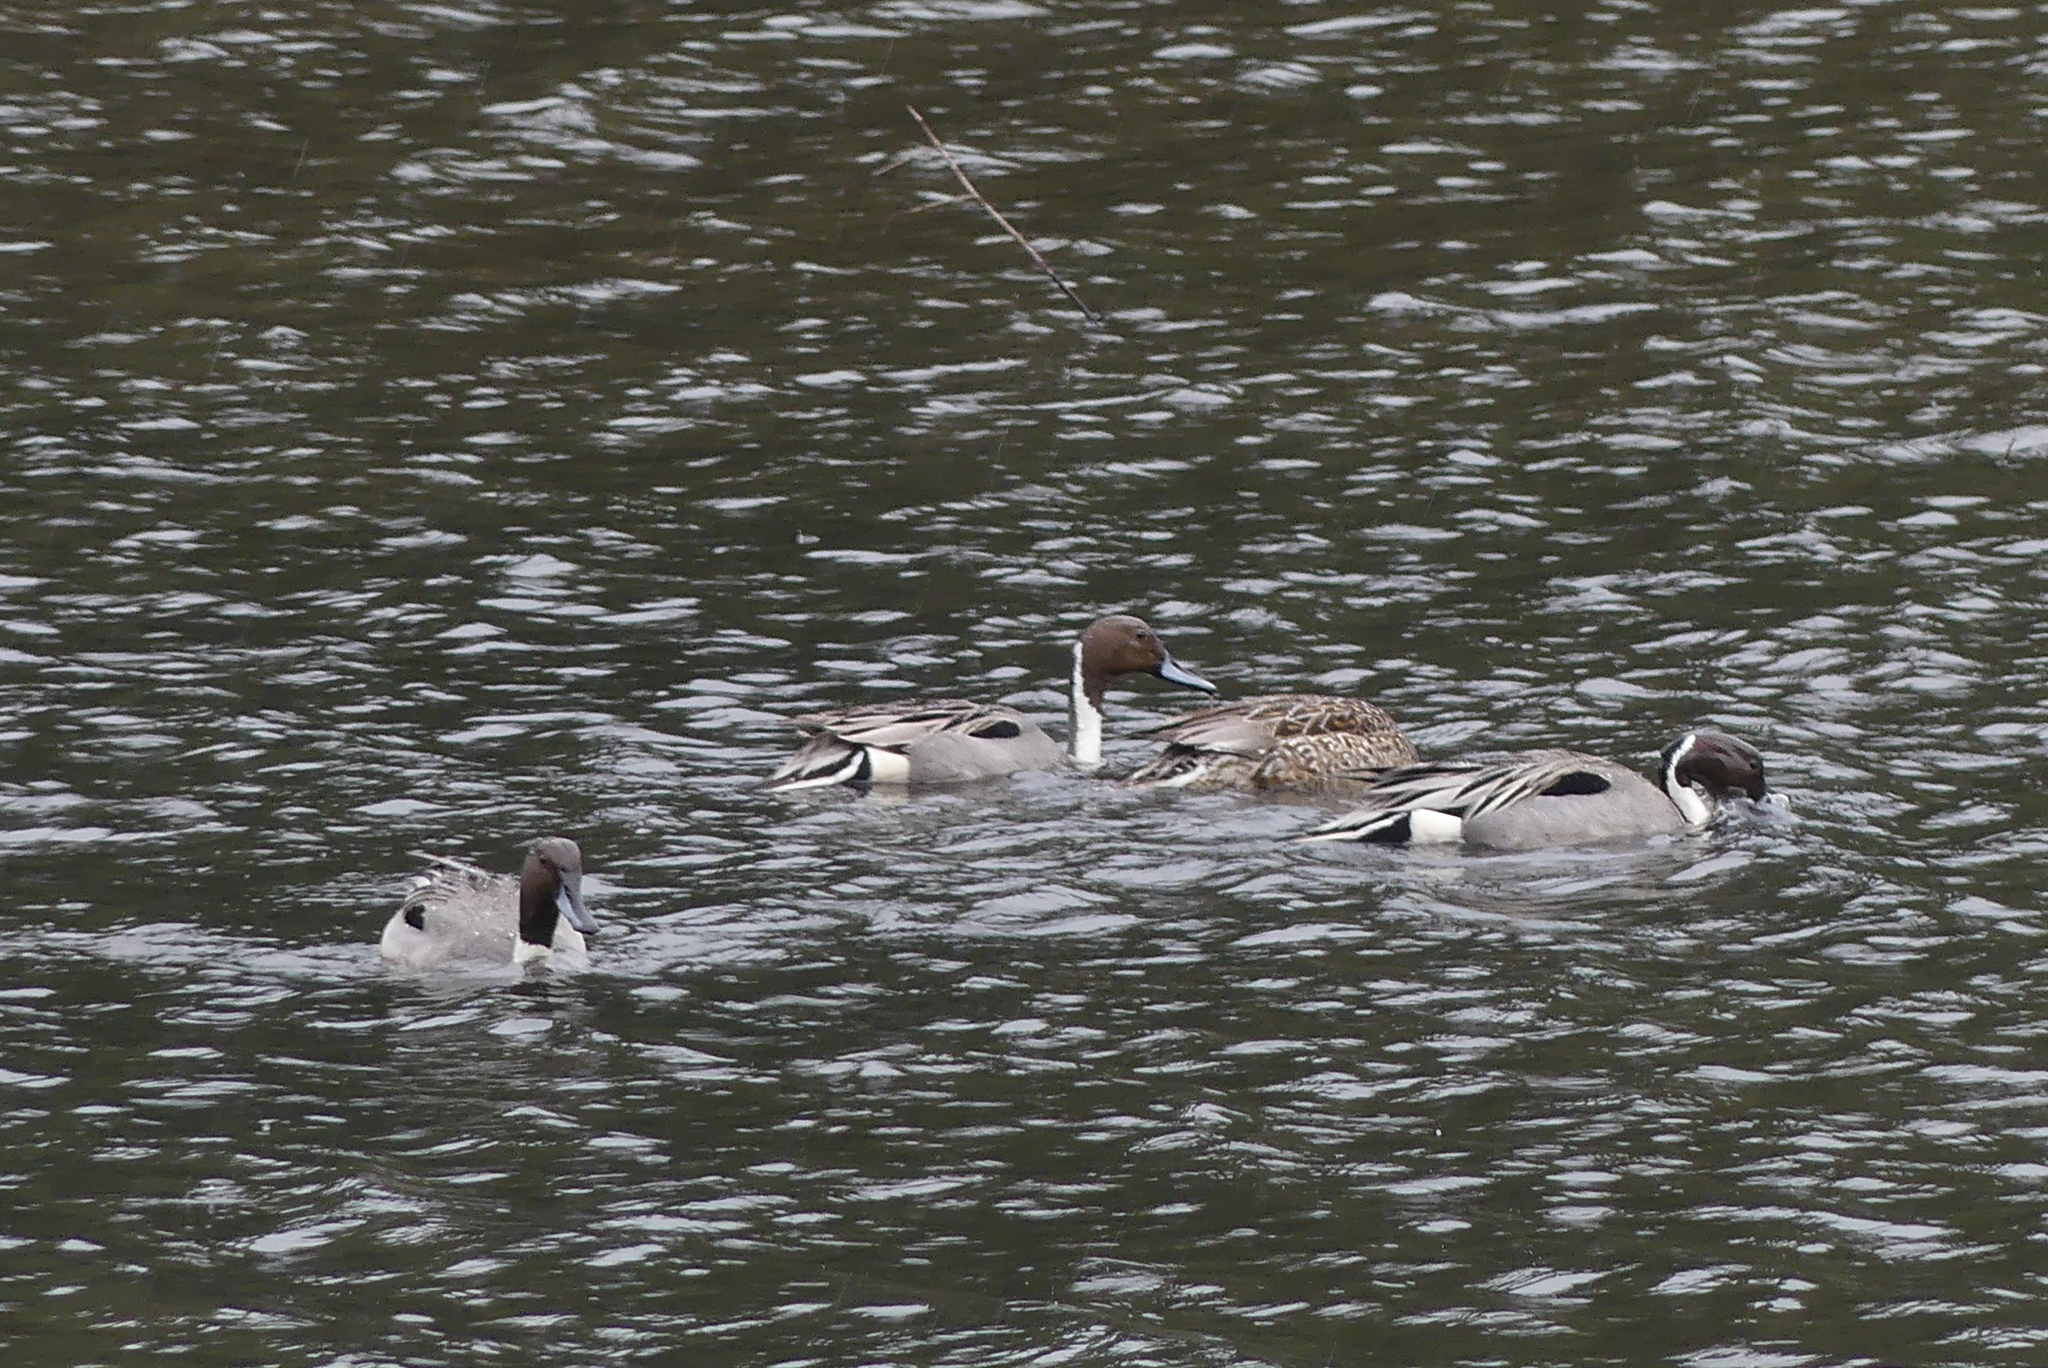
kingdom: Animalia
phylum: Chordata
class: Aves
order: Anseriformes
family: Anatidae
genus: Anas
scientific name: Anas acuta
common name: Northern pintail
